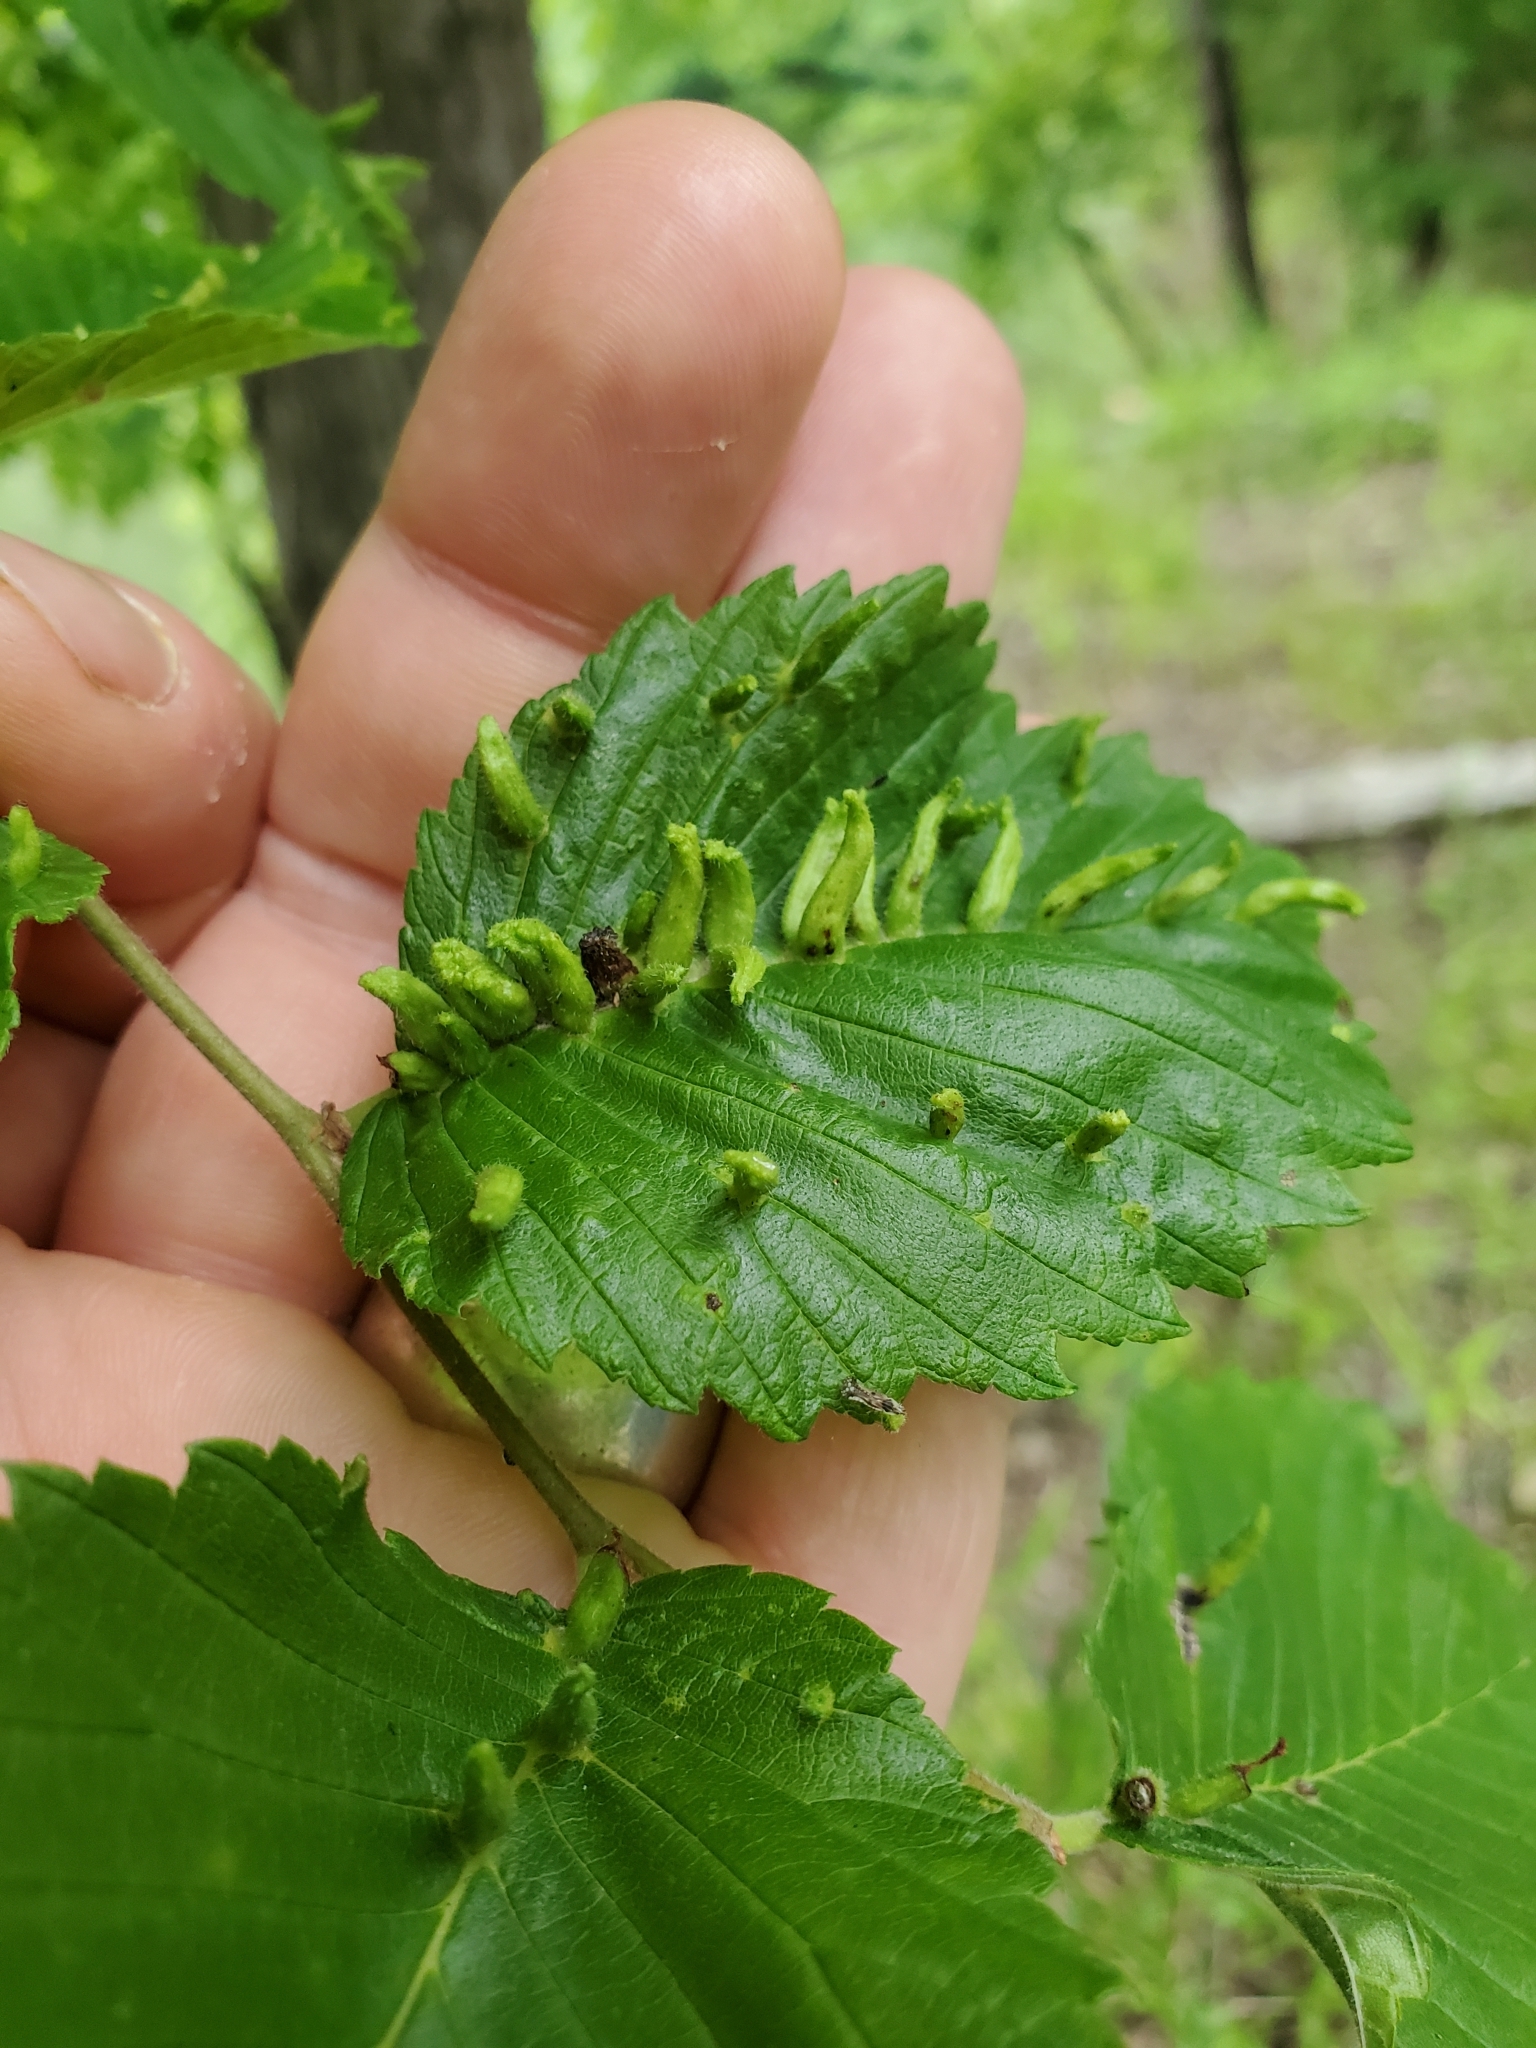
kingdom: Animalia
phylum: Arthropoda
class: Arachnida
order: Trombidiformes
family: Eriophyidae
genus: Aceria
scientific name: Aceria
